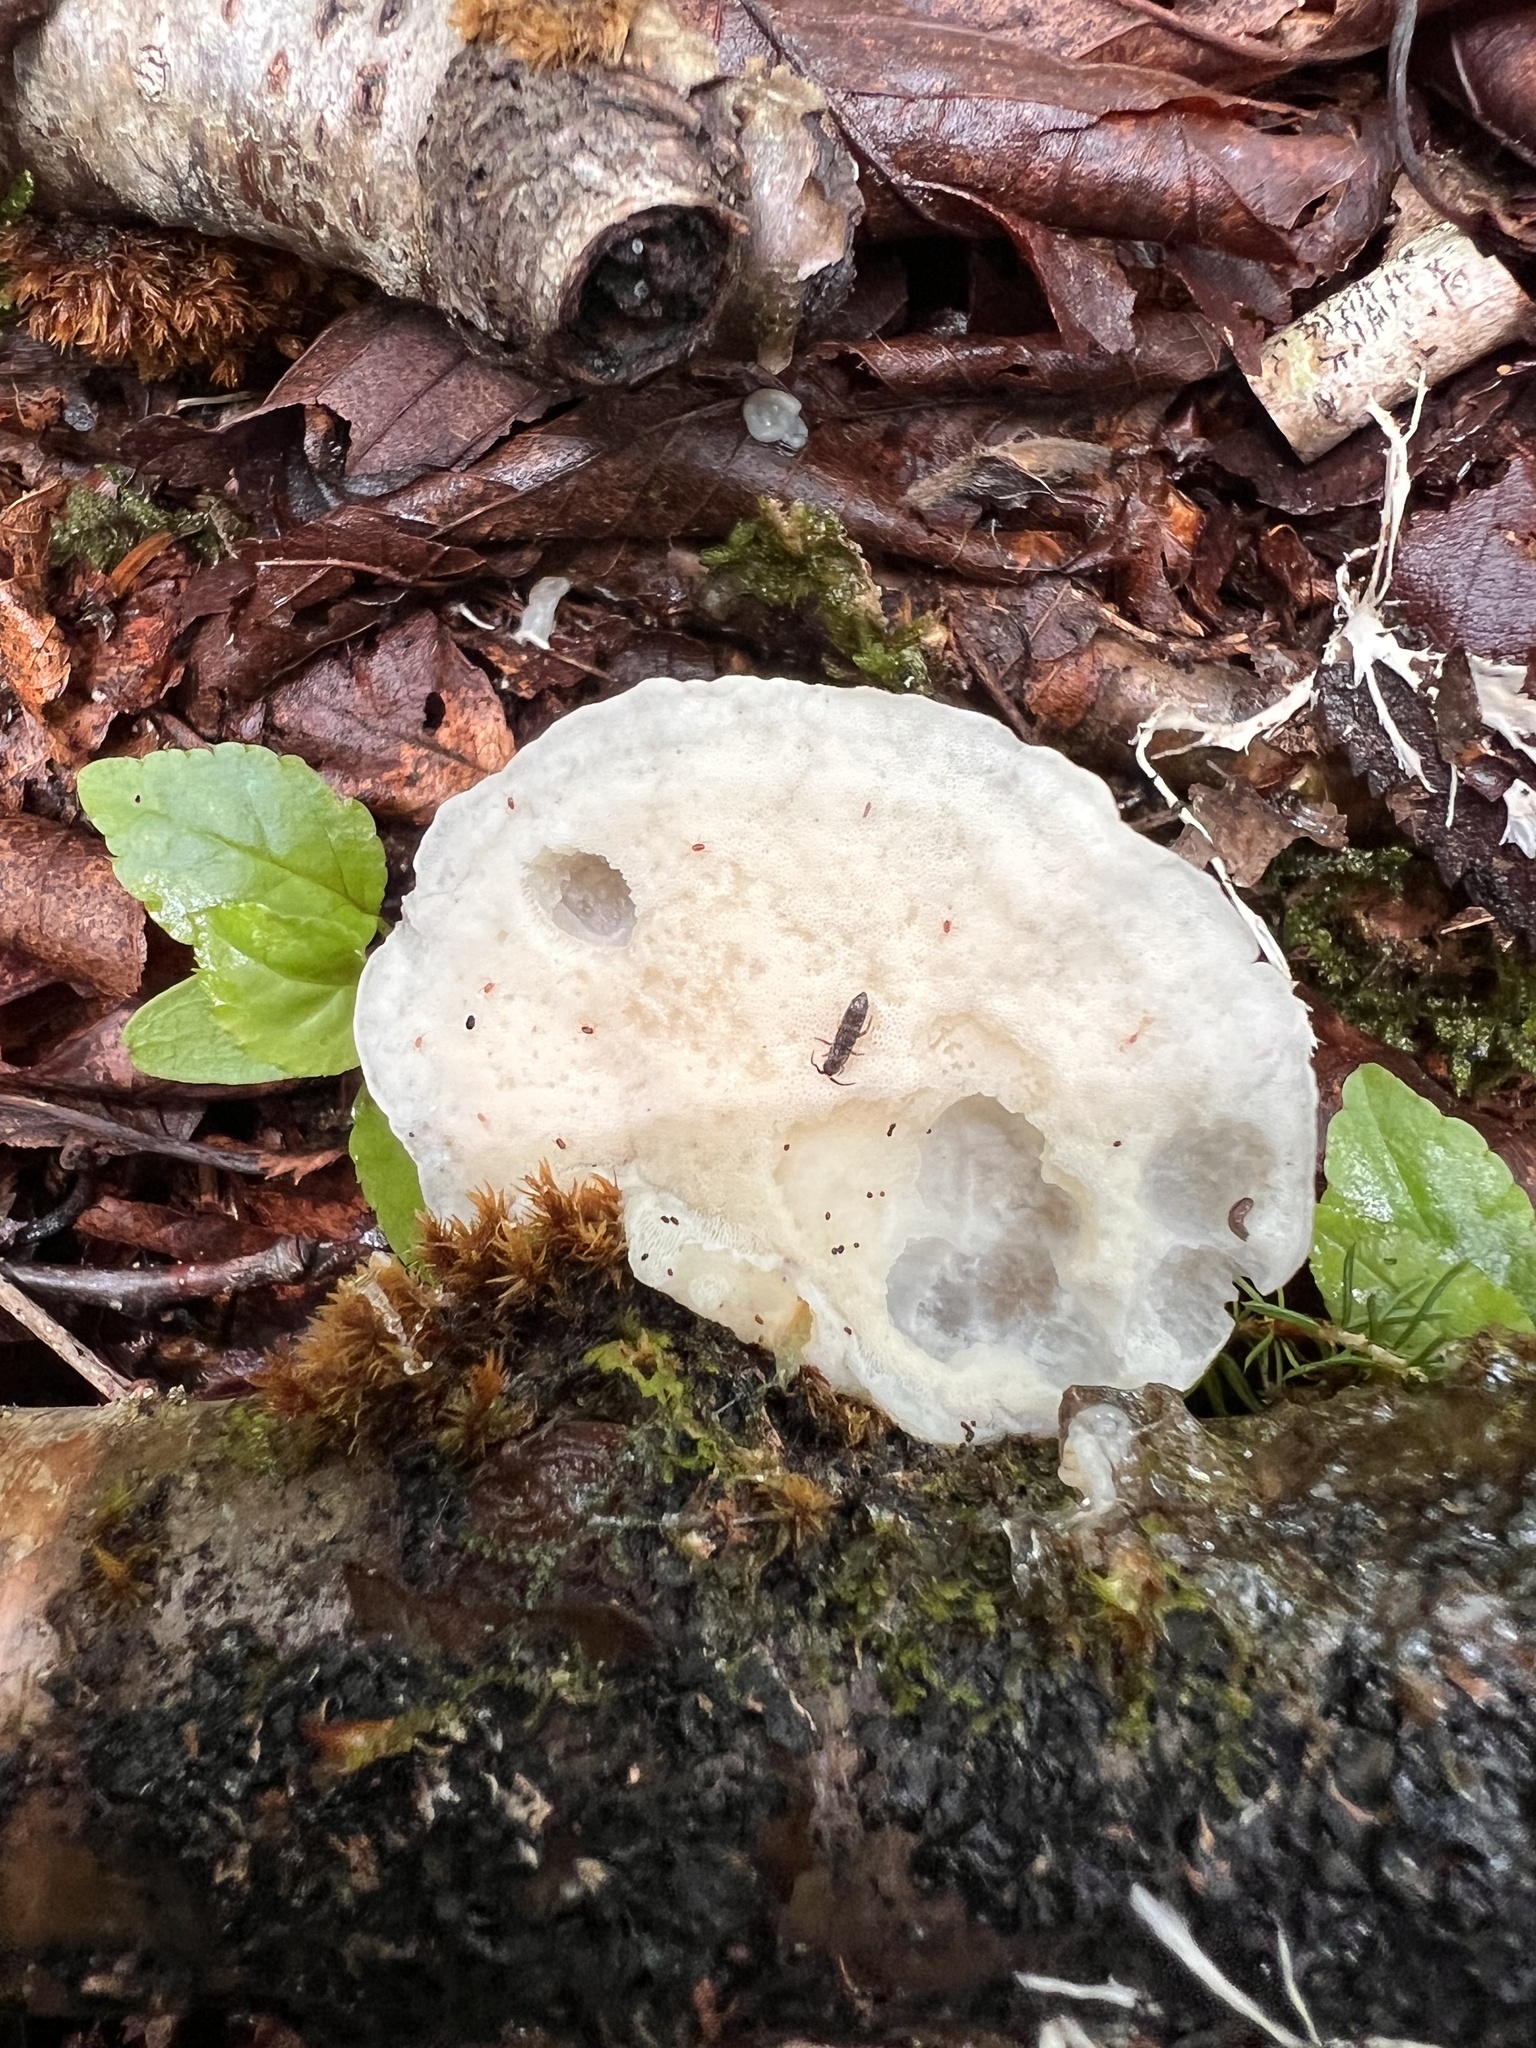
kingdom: Fungi
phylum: Basidiomycota
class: Agaricomycetes
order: Polyporales
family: Incrustoporiaceae
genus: Tyromyces
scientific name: Tyromyces chioneus
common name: White cheese polypore
